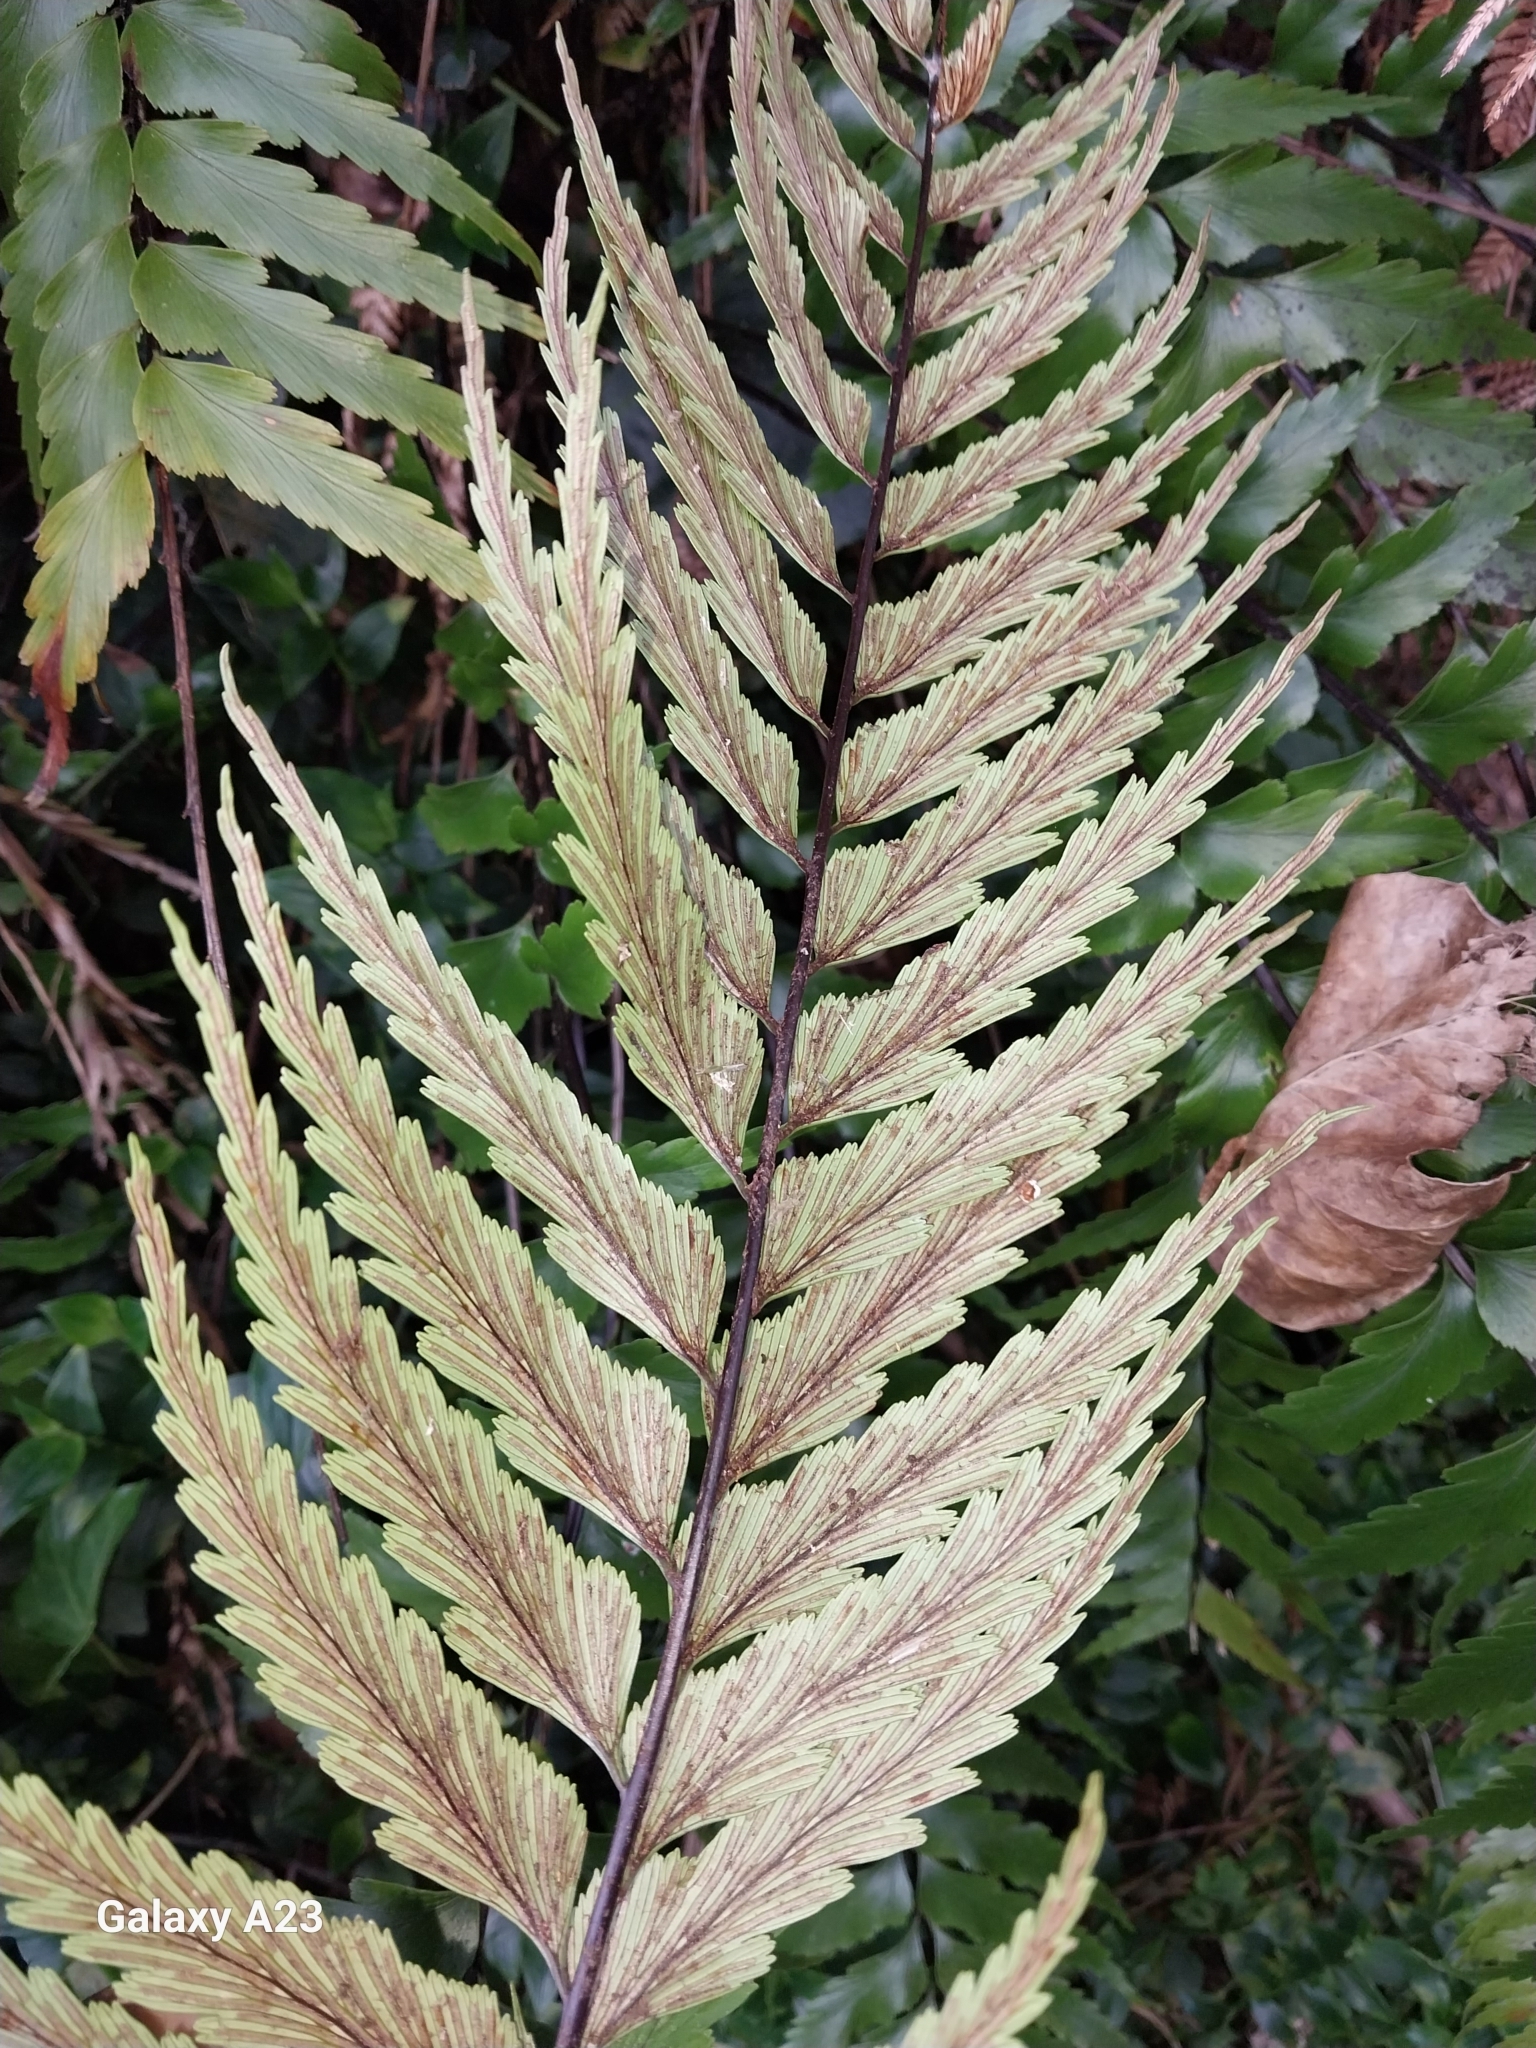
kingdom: Plantae
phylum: Tracheophyta
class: Polypodiopsida
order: Polypodiales
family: Aspleniaceae
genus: Asplenium
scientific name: Asplenium polyodon
